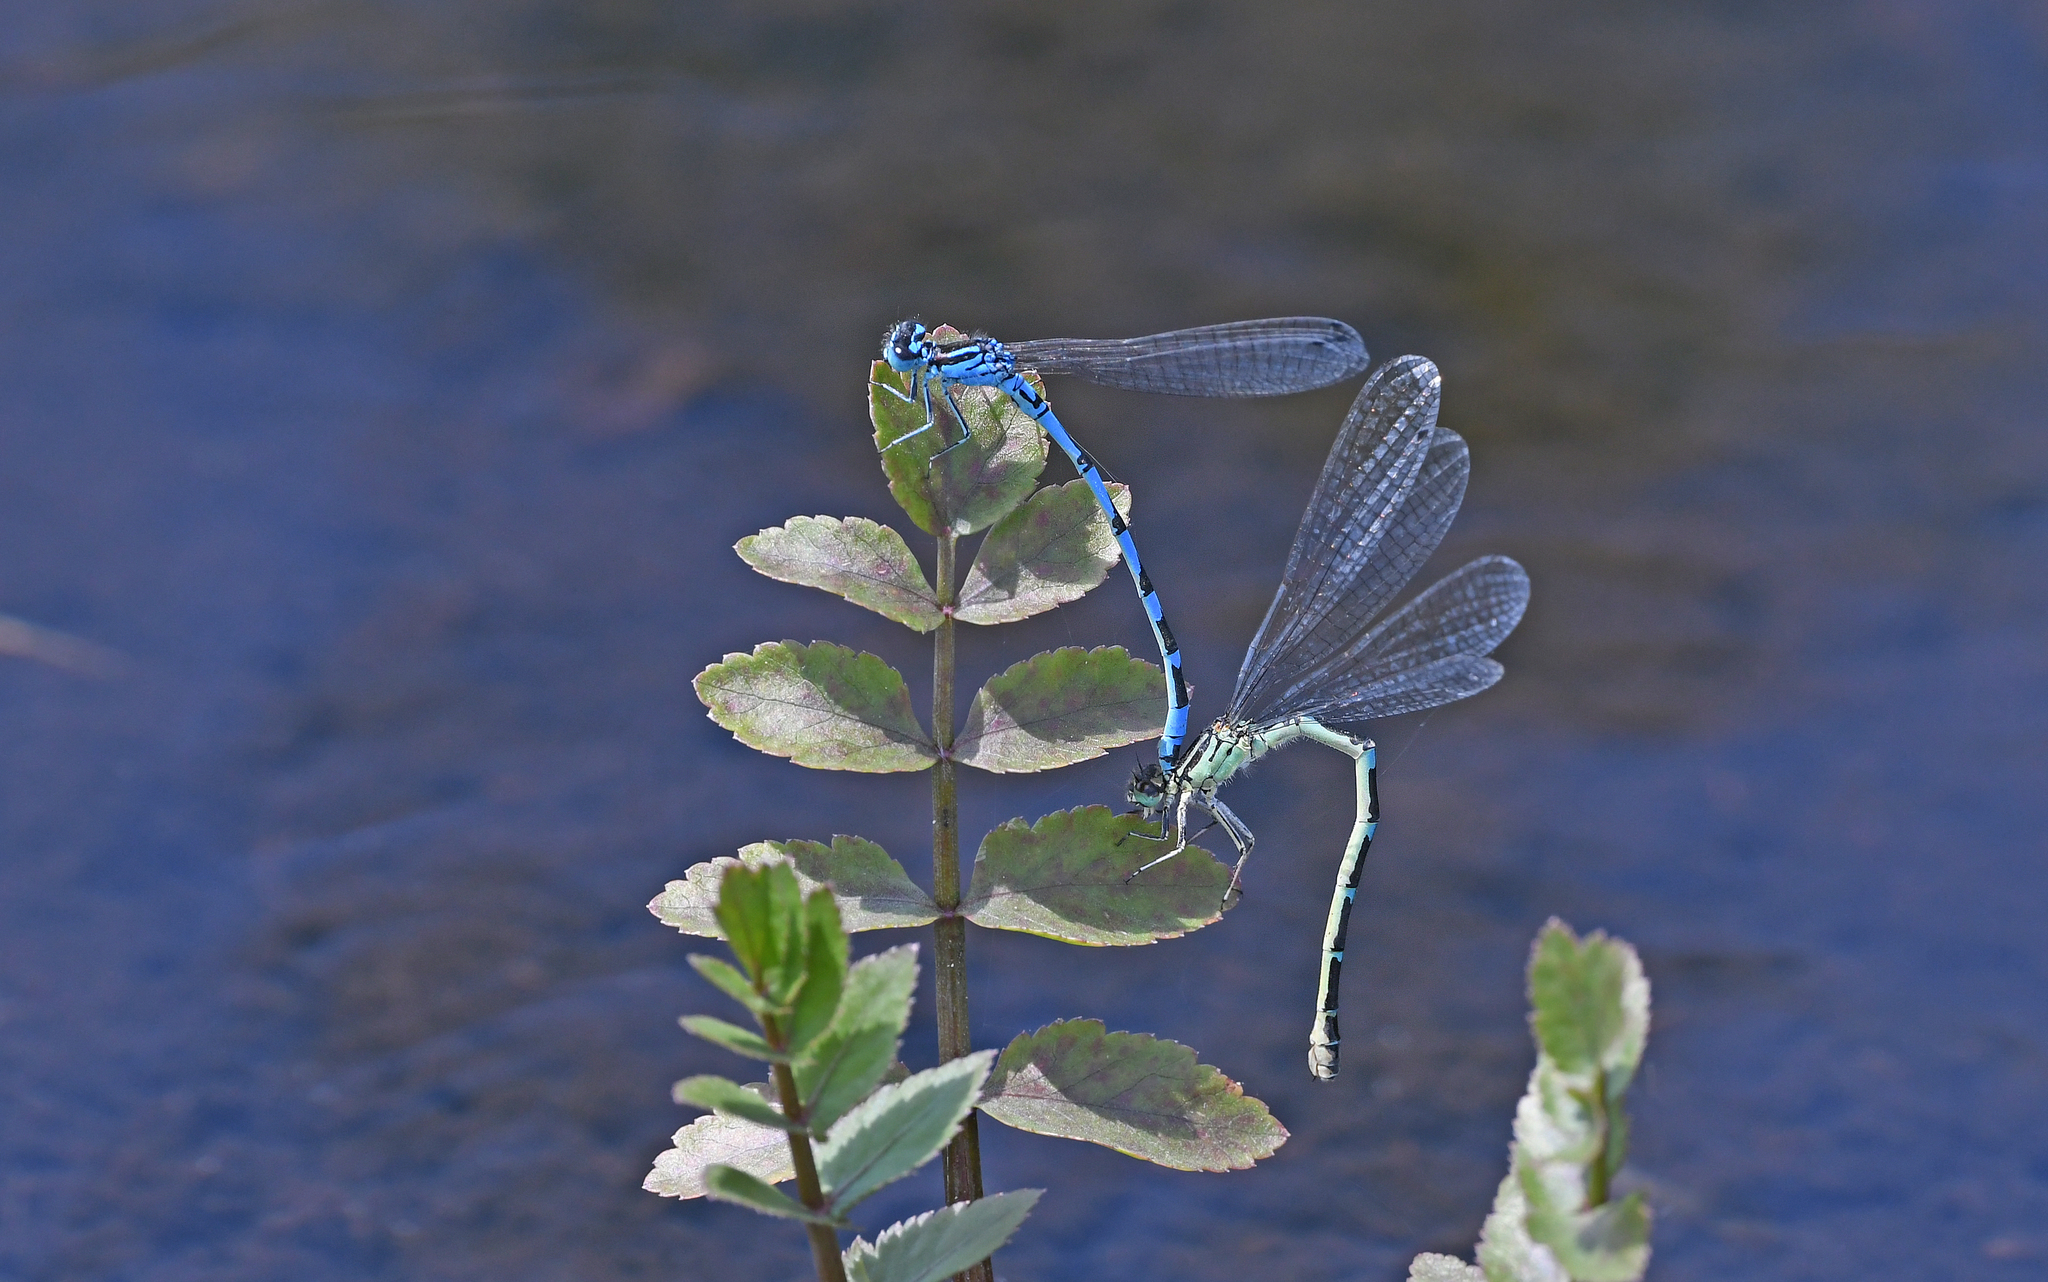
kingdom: Animalia
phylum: Arthropoda
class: Insecta
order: Odonata
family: Coenagrionidae
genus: Coenagrion
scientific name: Coenagrion ornatum
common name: Ornate bluet
